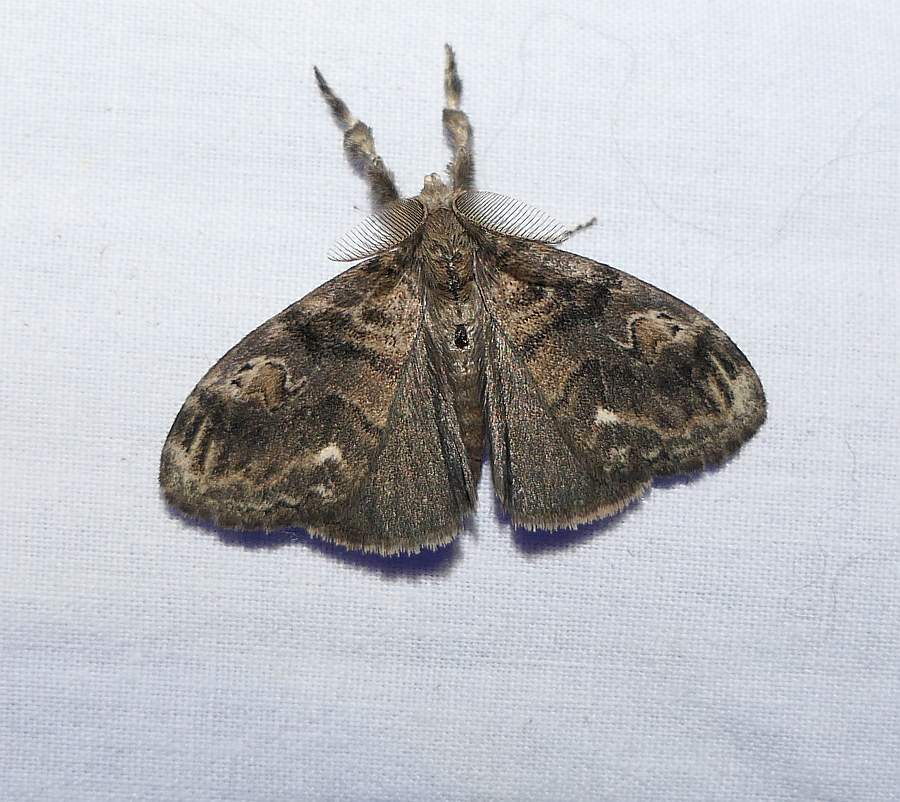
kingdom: Animalia
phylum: Arthropoda
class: Insecta
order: Lepidoptera
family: Erebidae
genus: Orgyia
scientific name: Orgyia definita
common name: Definite tussock moth
